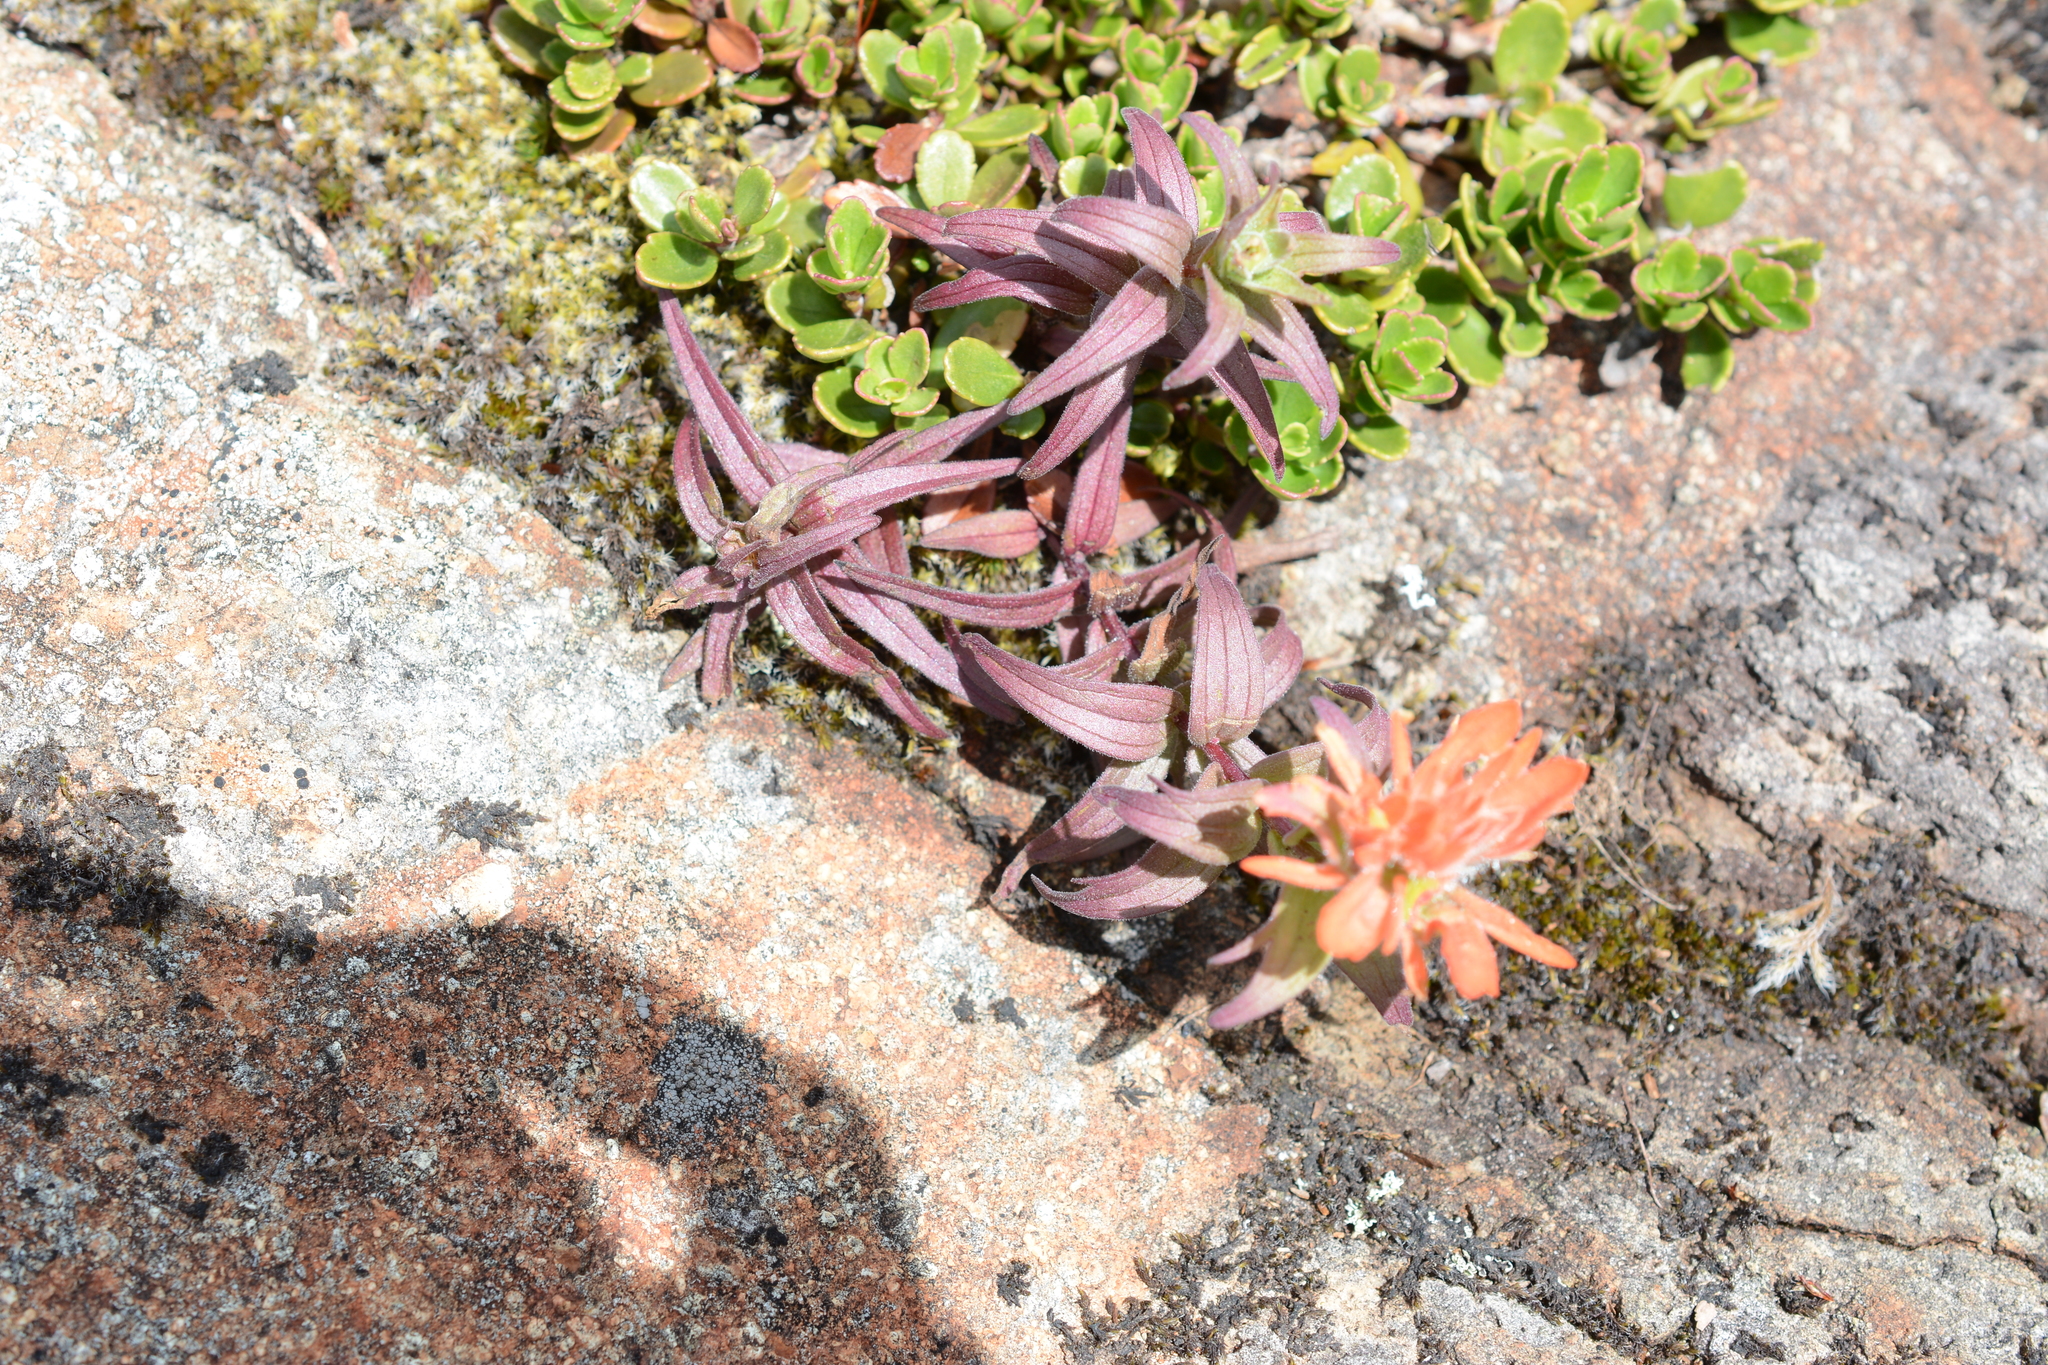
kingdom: Plantae
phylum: Tracheophyta
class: Magnoliopsida
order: Lamiales
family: Orobanchaceae
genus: Castilleja
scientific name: Castilleja miniata
